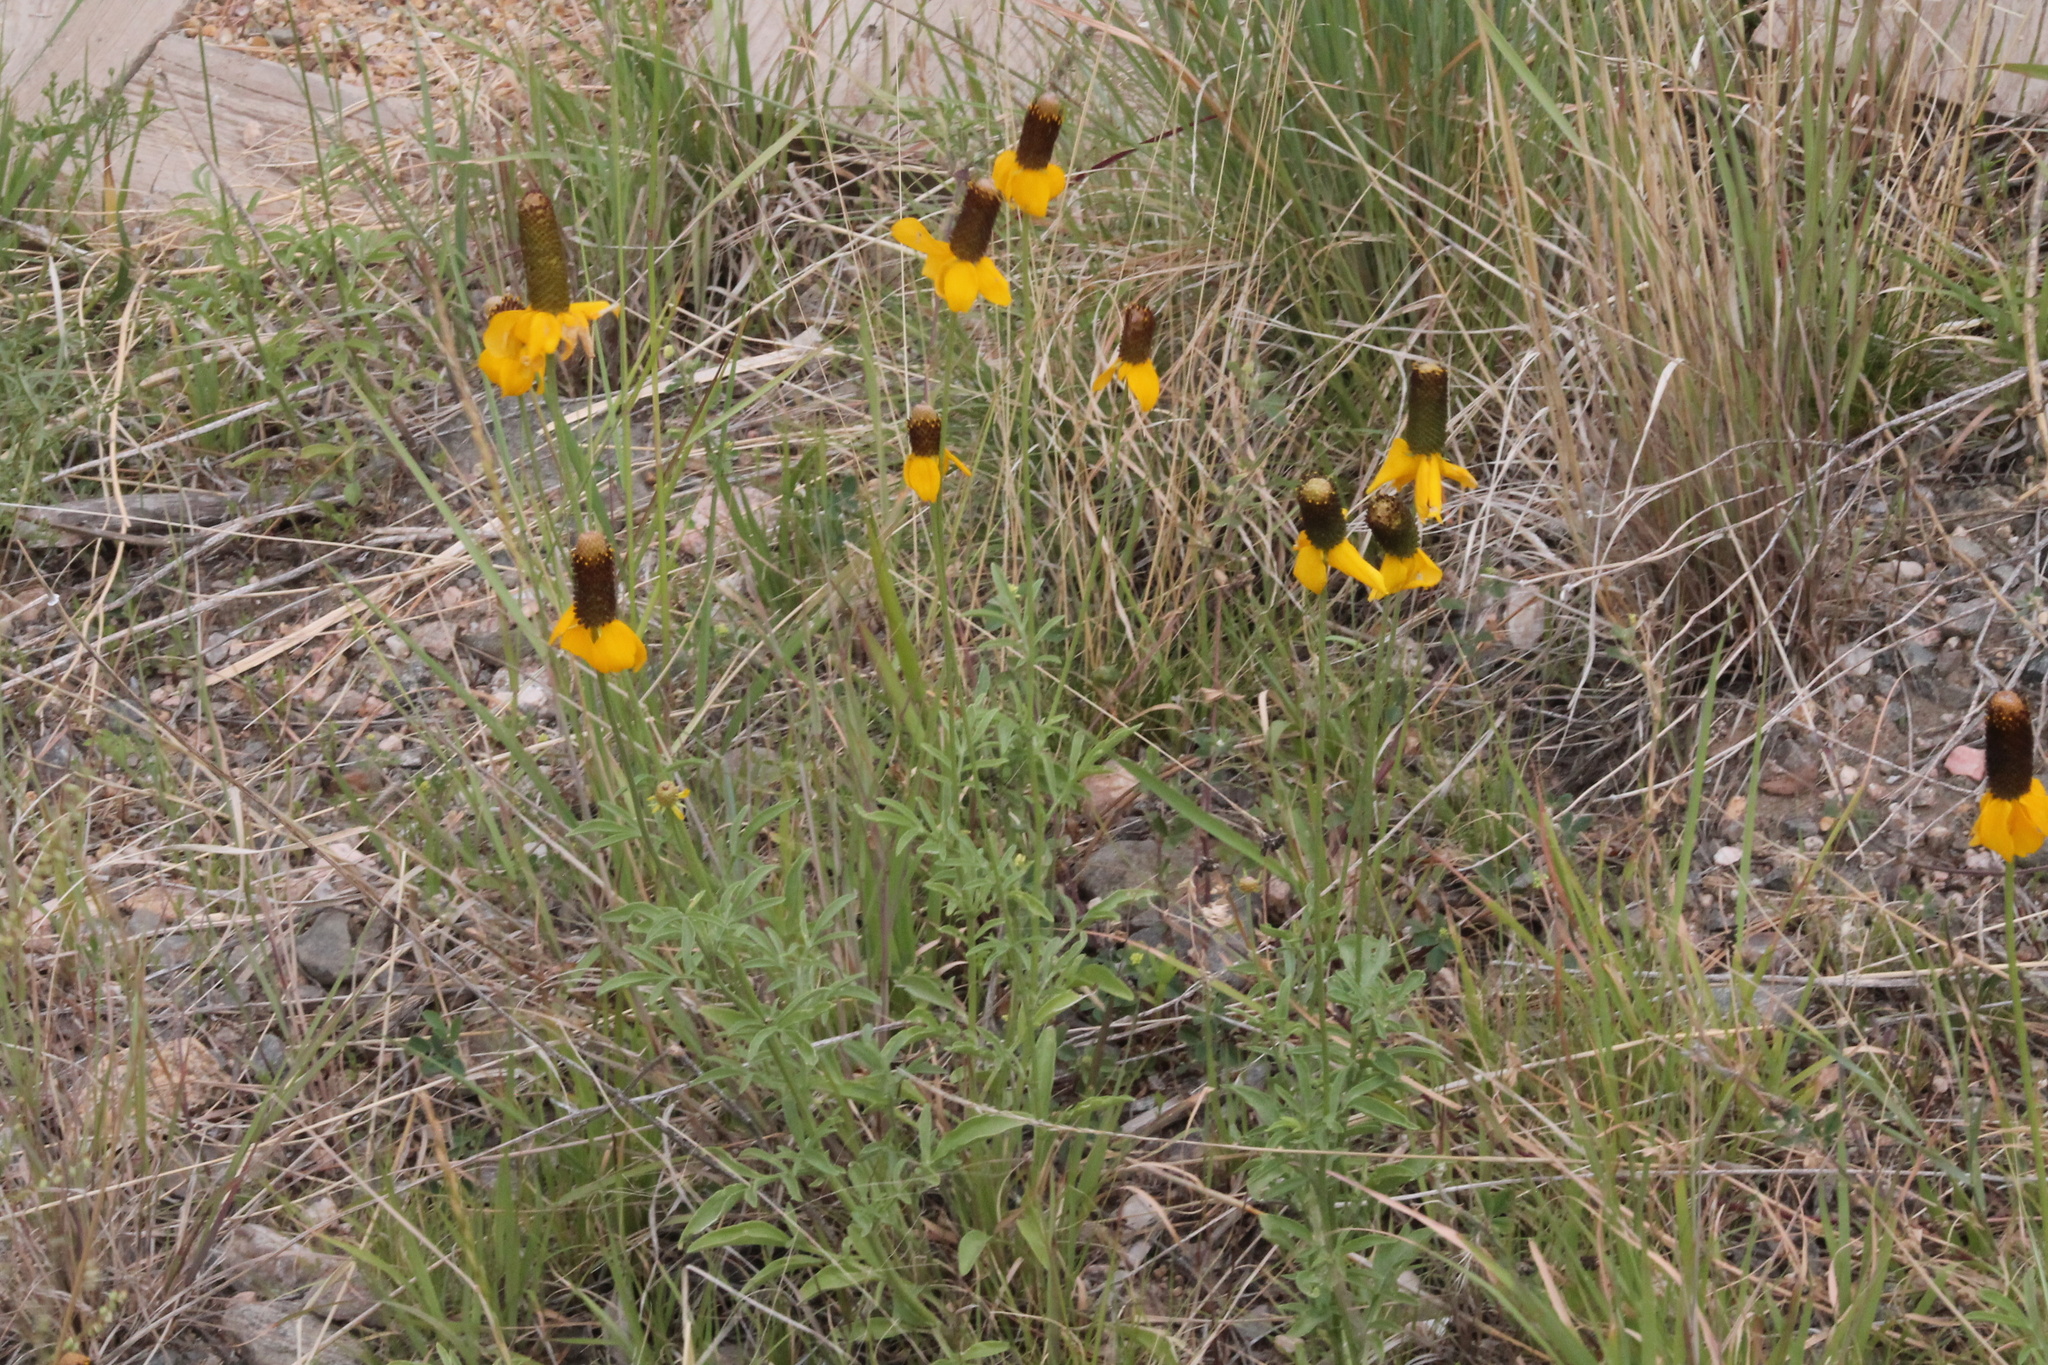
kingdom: Plantae
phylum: Tracheophyta
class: Magnoliopsida
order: Asterales
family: Asteraceae
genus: Ratibida
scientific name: Ratibida columnifera
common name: Prairie coneflower
